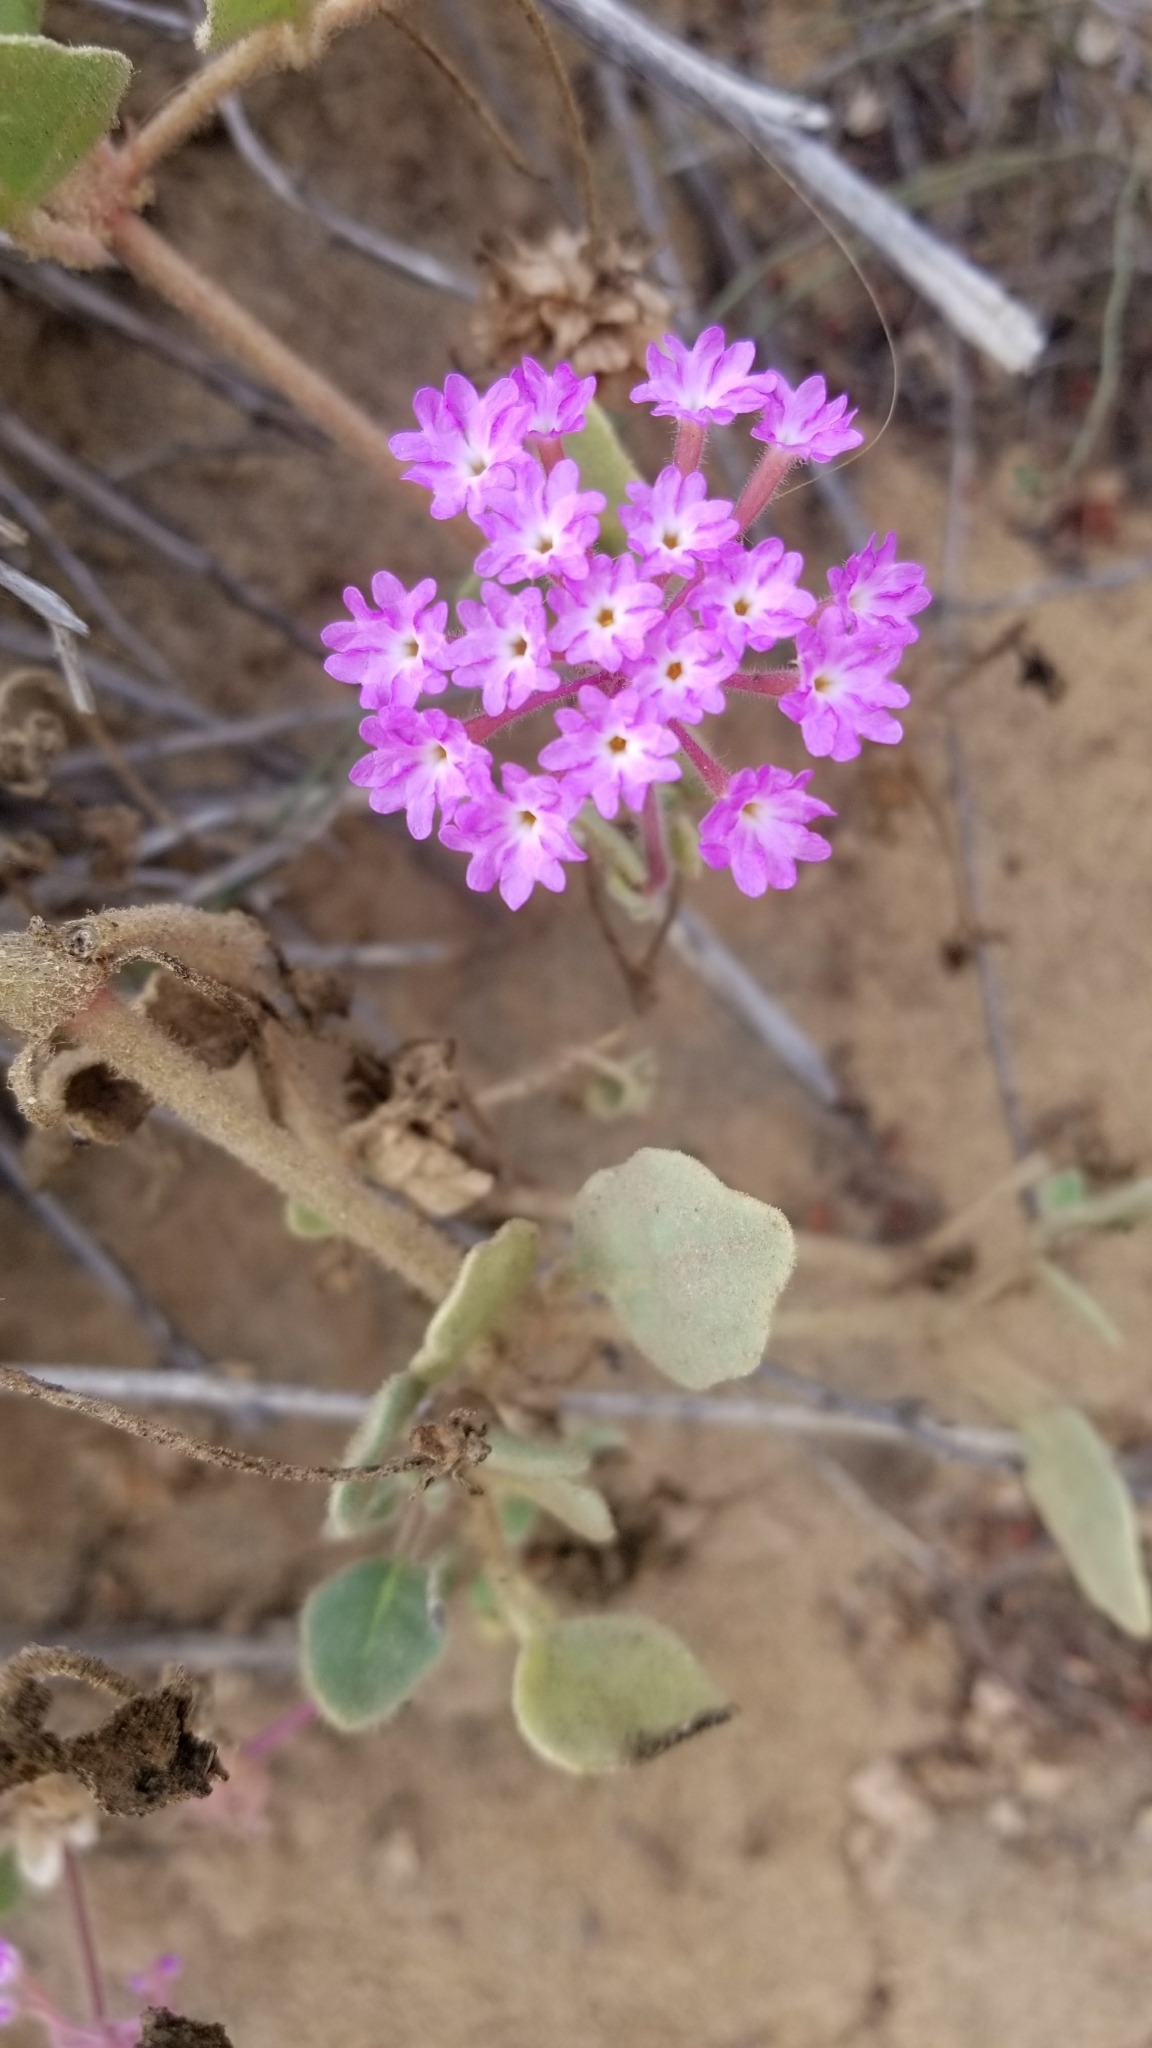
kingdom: Plantae
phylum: Tracheophyta
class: Magnoliopsida
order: Caryophyllales
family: Nyctaginaceae
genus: Abronia
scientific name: Abronia umbellata
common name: Sand-verbena
